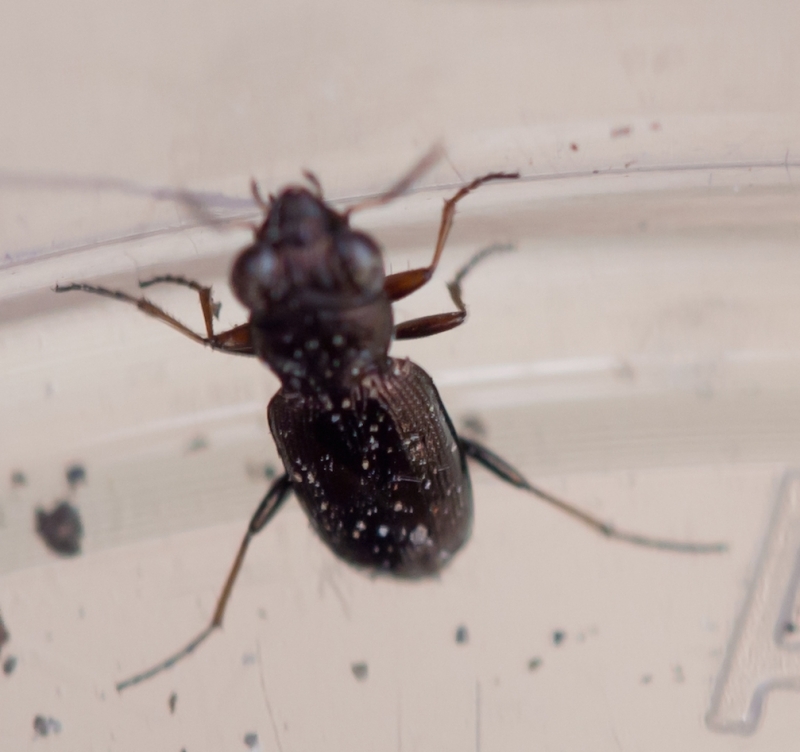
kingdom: Animalia
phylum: Arthropoda
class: Insecta
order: Coleoptera
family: Carabidae
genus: Notiophilus
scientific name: Notiophilus rufipes
